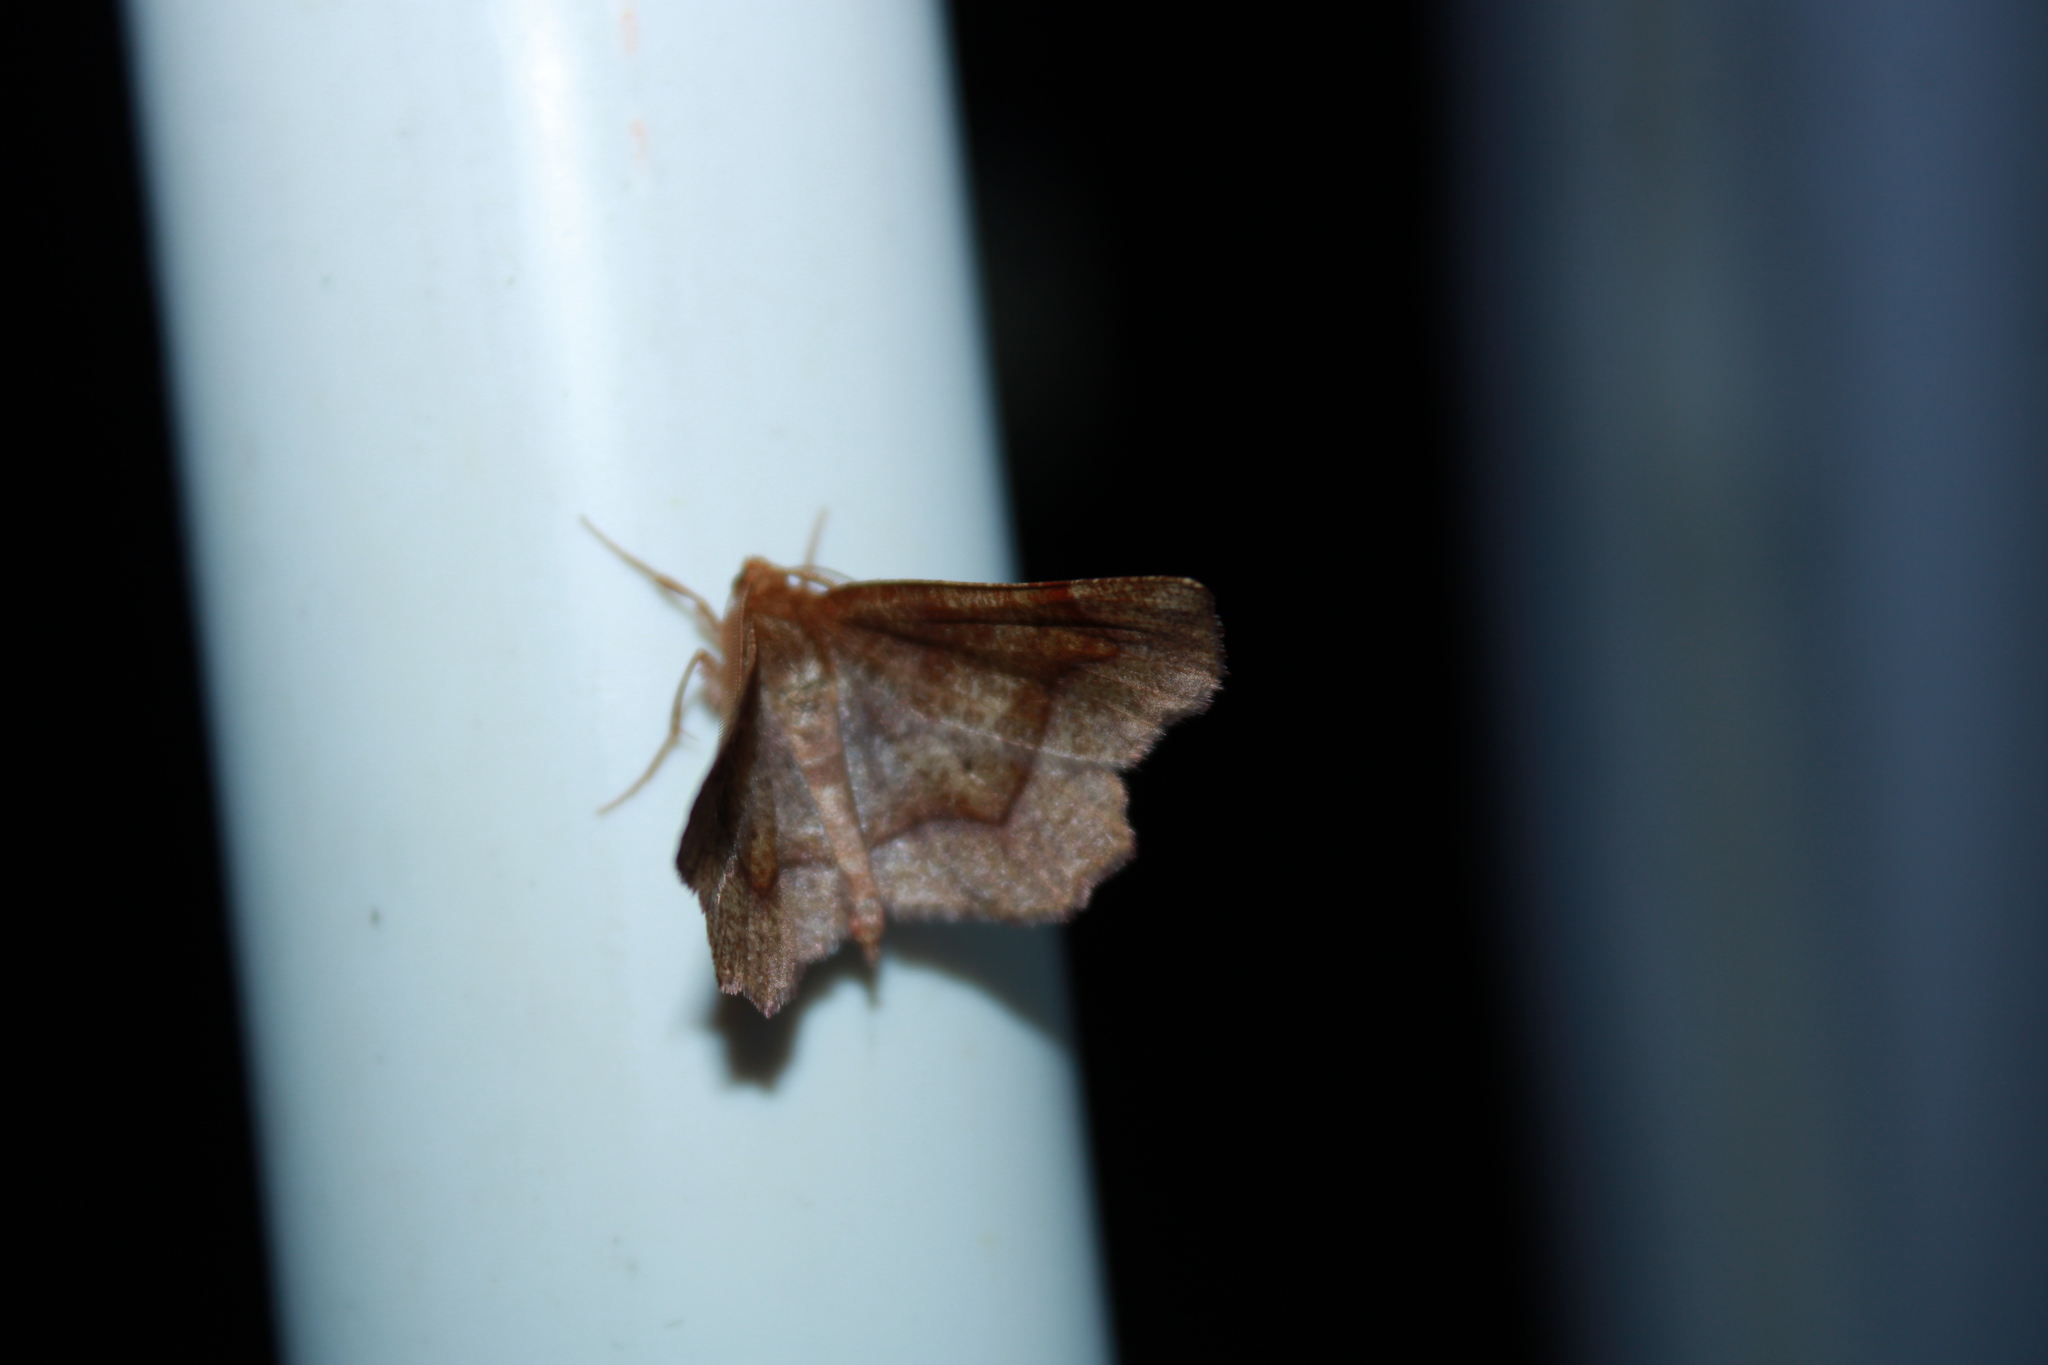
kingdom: Animalia
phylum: Arthropoda
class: Insecta
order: Lepidoptera
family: Geometridae
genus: Metarranthis
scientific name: Metarranthis hypochraria
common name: Common metarranthis
